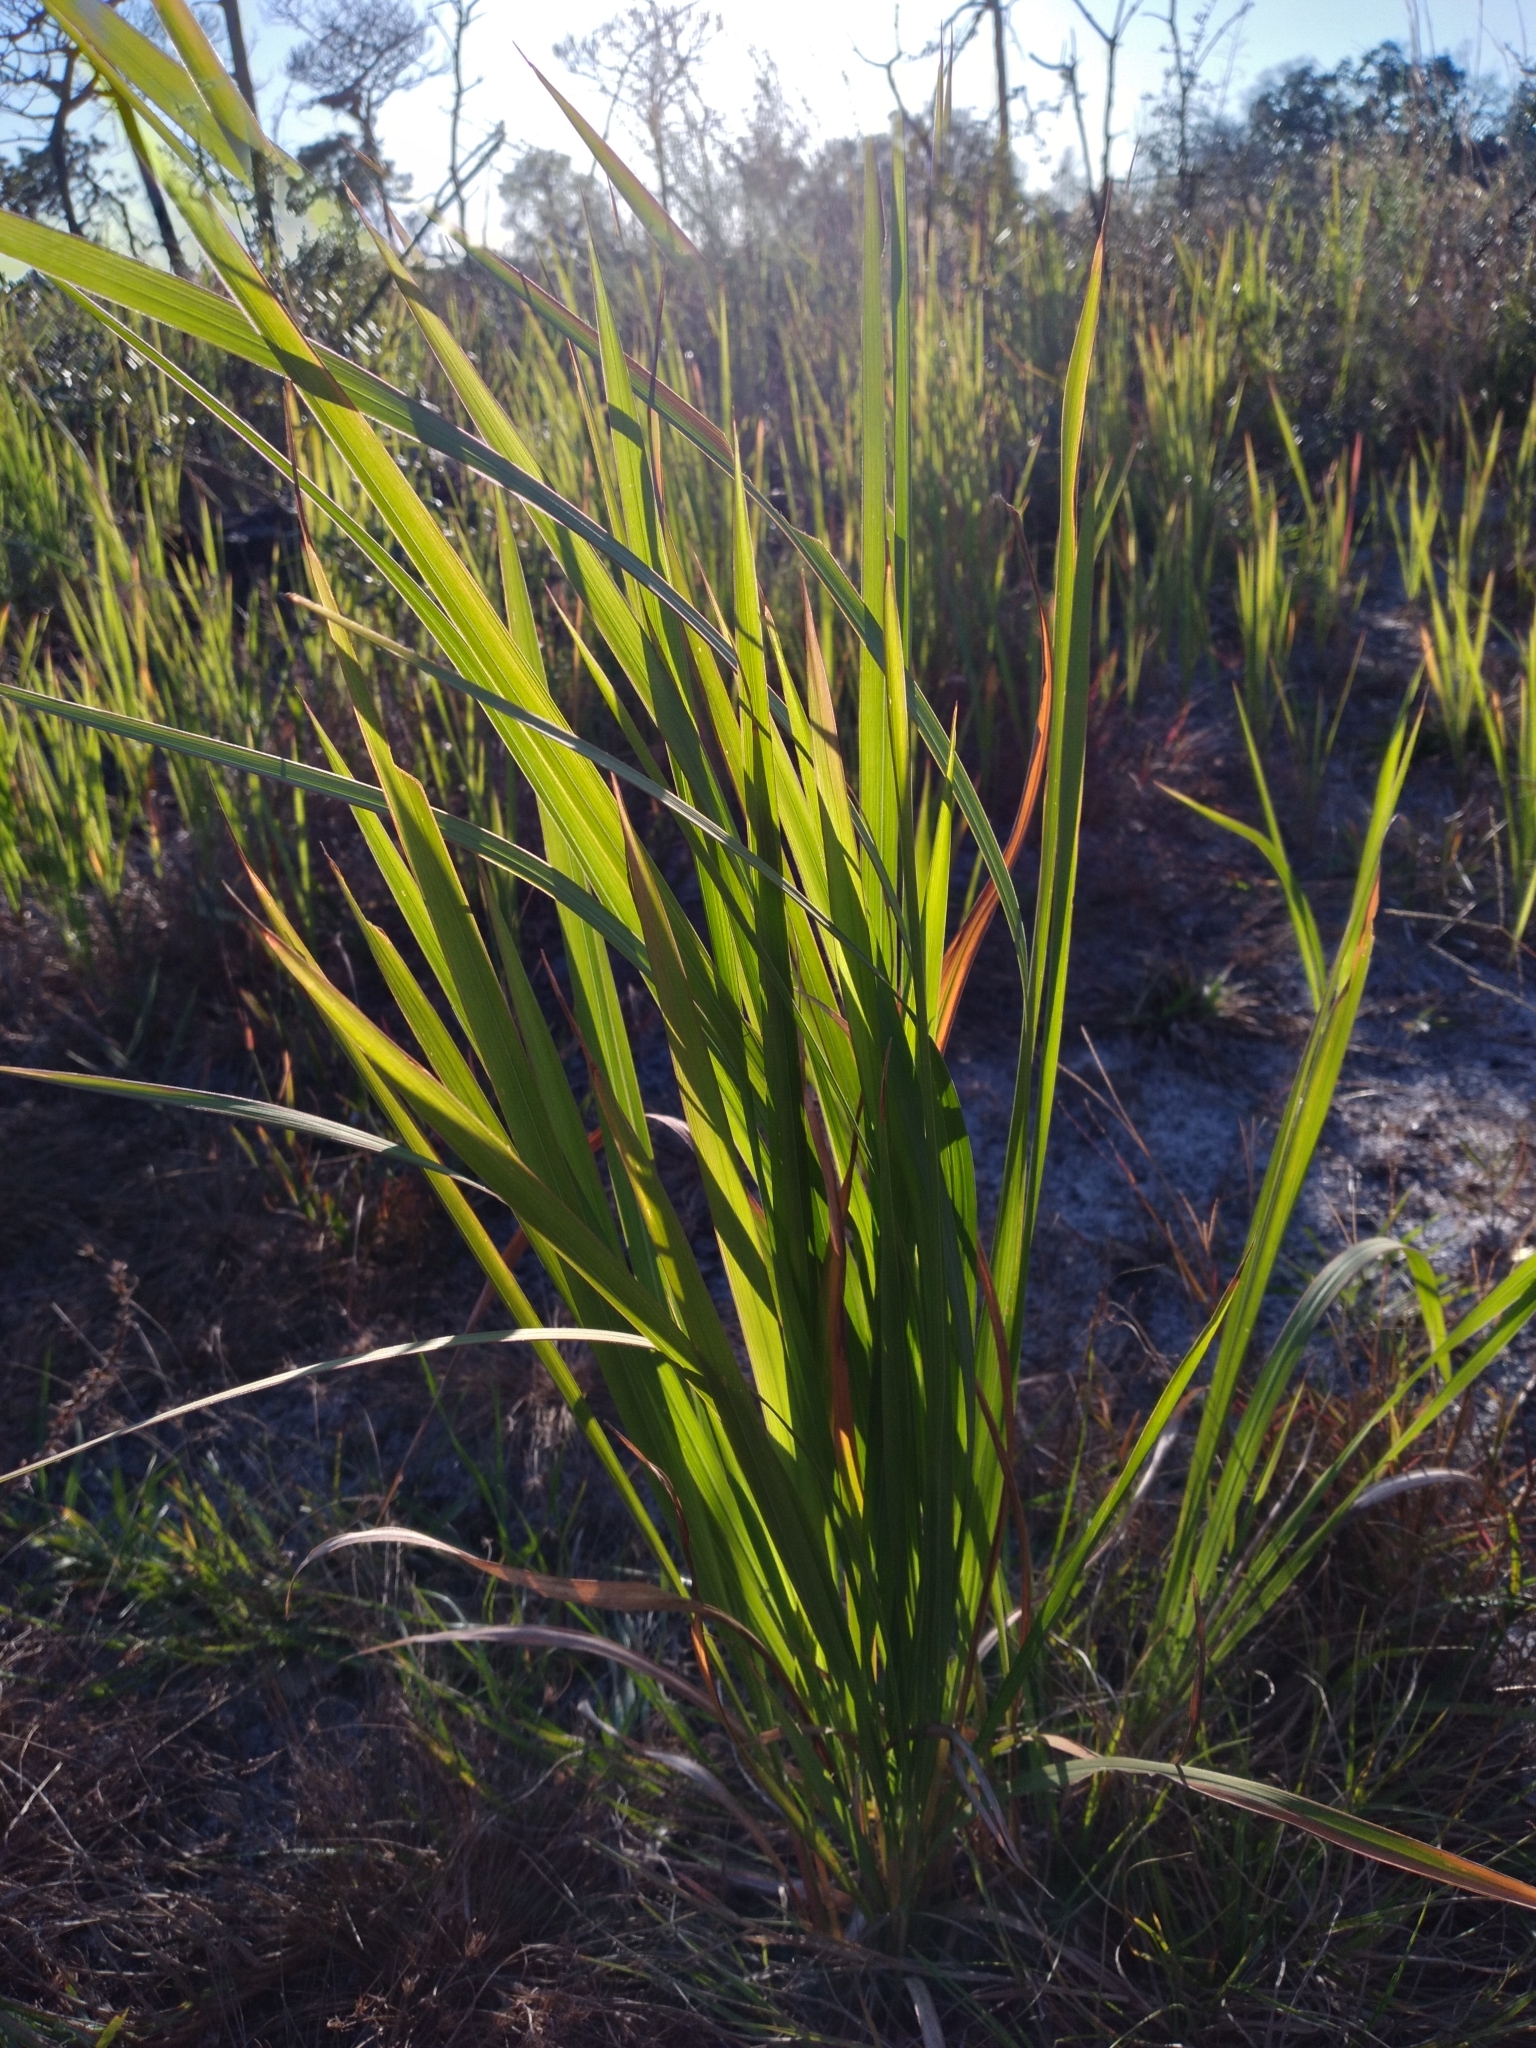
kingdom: Plantae
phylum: Tracheophyta
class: Liliopsida
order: Poales
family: Poaceae
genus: Imperata
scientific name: Imperata cylindrica
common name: Cogongrass
